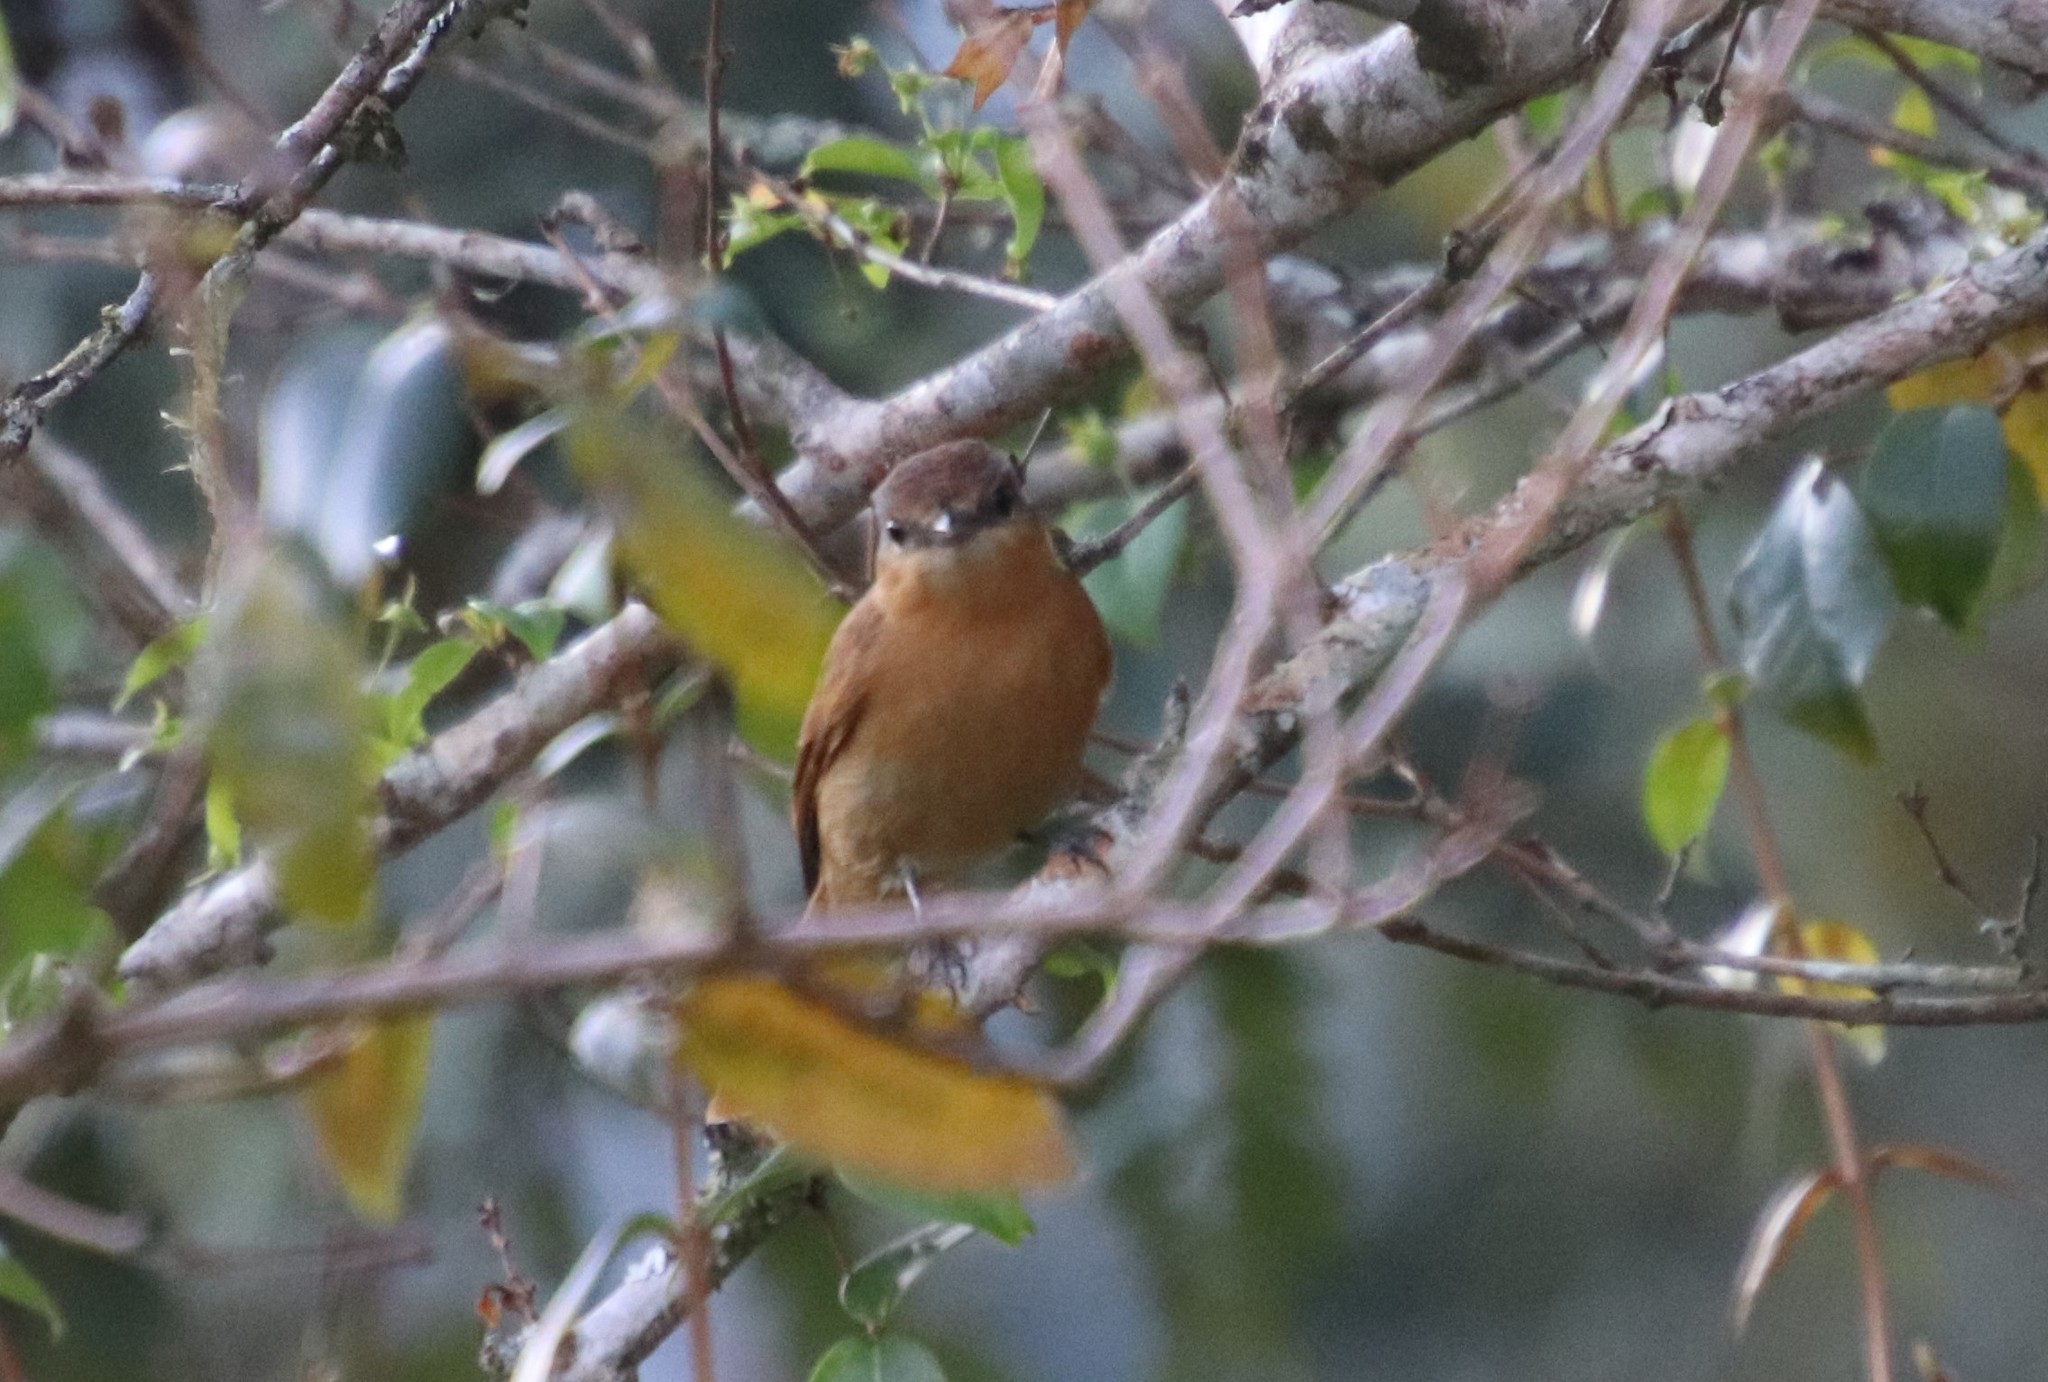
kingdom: Animalia
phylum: Chordata
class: Aves
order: Passeriformes
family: Cotingidae
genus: Pachyramphus
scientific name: Pachyramphus castaneus
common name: Chestnut-crowned becard
